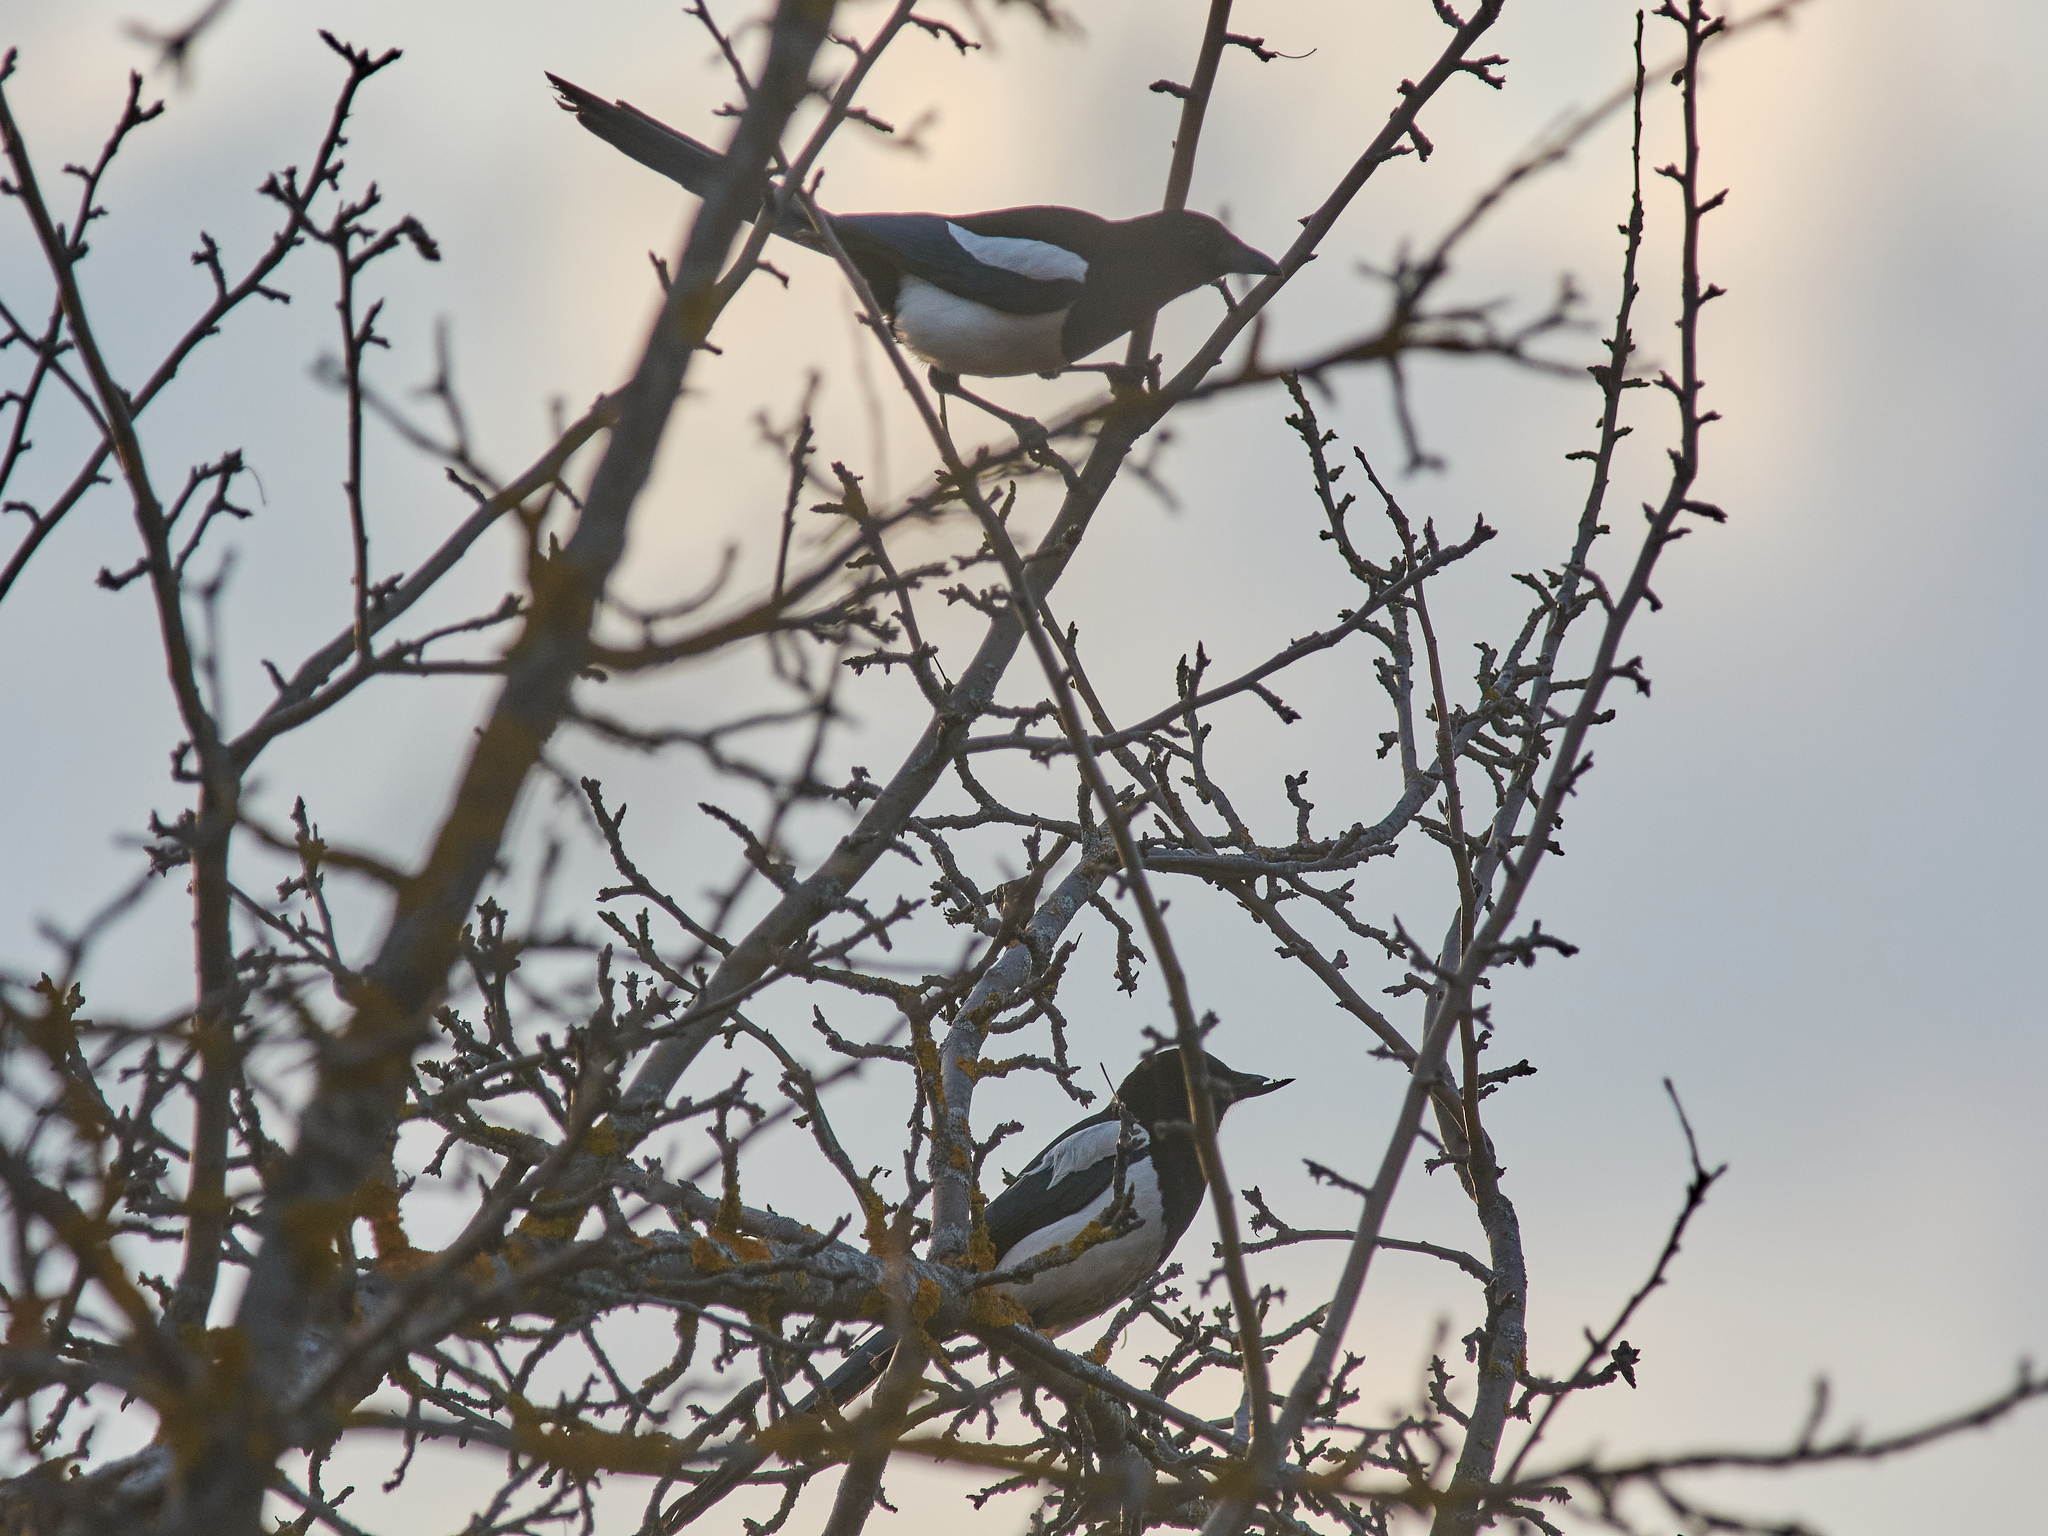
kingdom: Animalia
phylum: Chordata
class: Aves
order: Passeriformes
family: Corvidae
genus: Pica
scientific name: Pica pica
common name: Eurasian magpie
